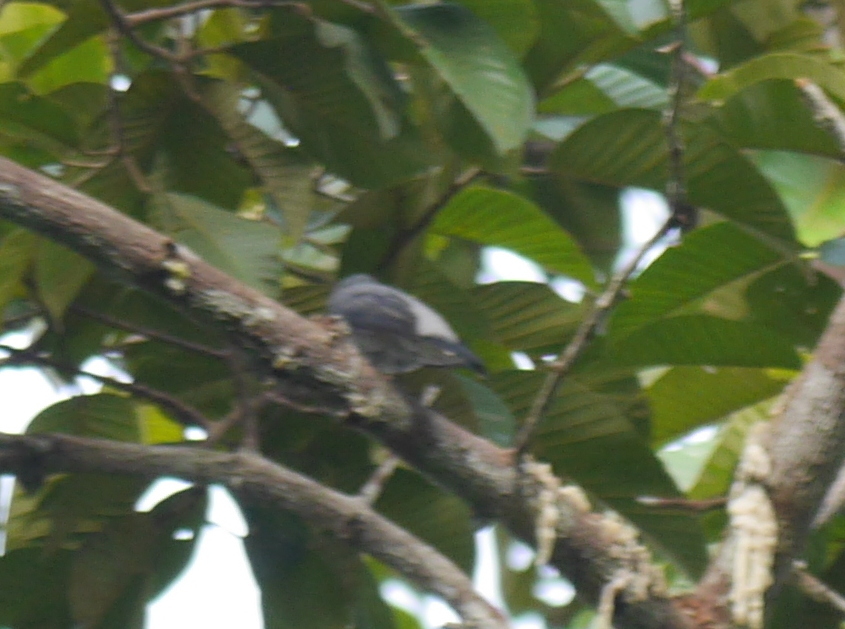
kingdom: Animalia
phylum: Chordata
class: Aves
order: Passeriformes
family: Campephagidae
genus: Coracina
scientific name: Coracina fimbriata
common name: Lesser cuckooshrike
